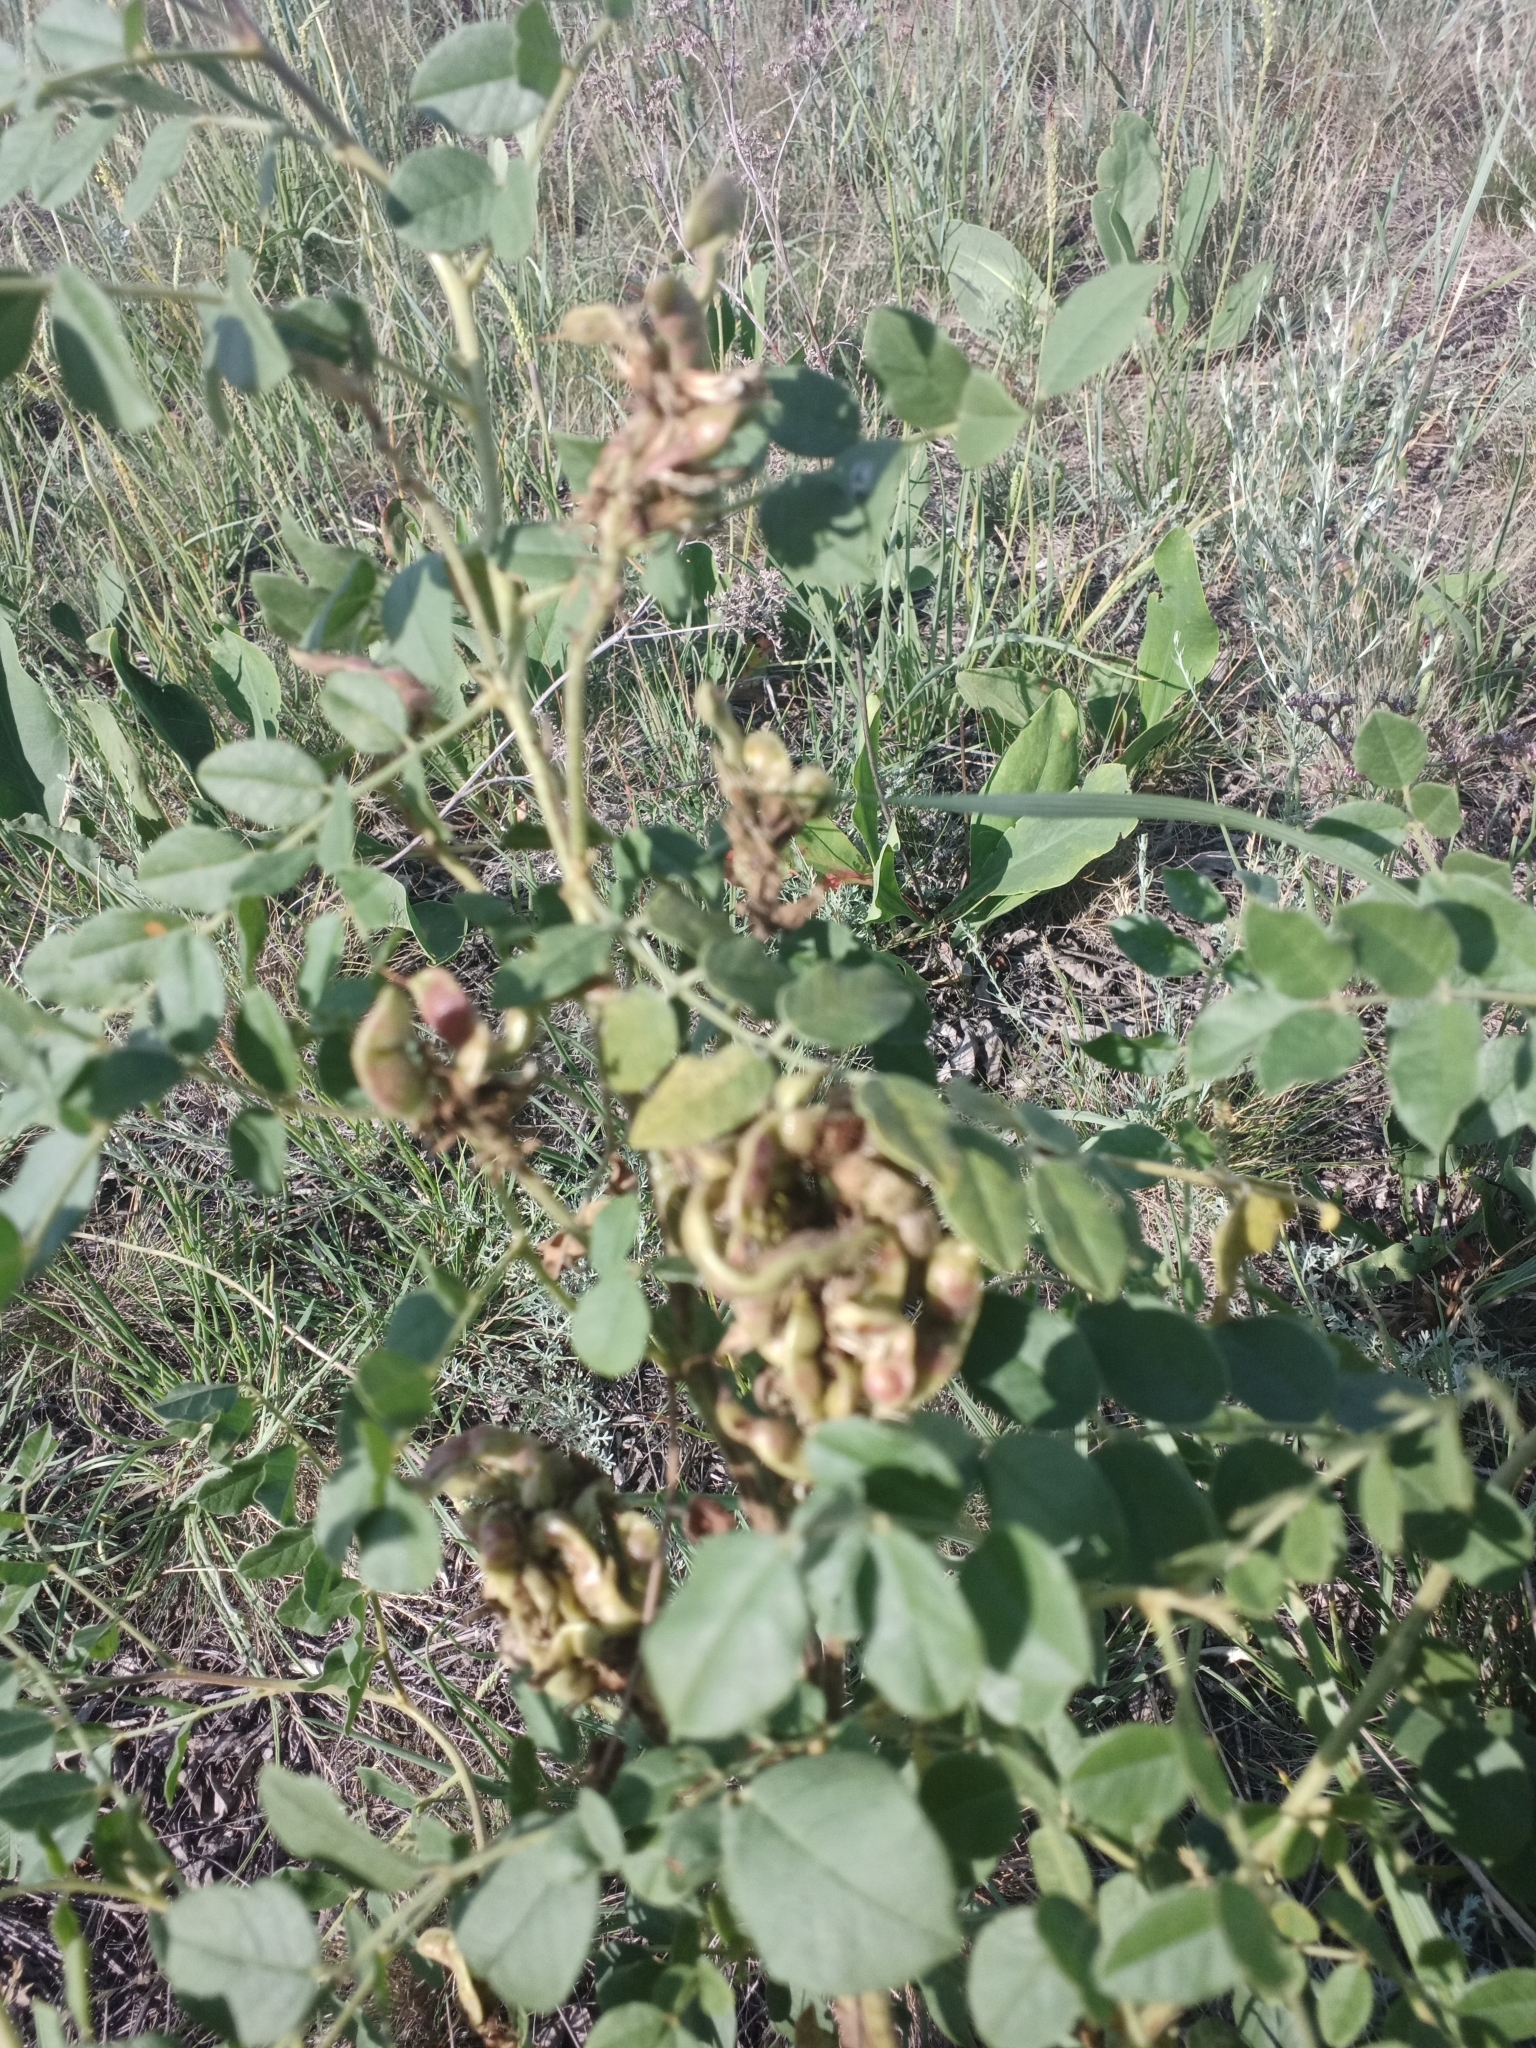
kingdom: Plantae
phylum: Tracheophyta
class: Magnoliopsida
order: Fabales
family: Fabaceae
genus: Glycyrrhiza
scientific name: Glycyrrhiza uralensis
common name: Chinese licorice
